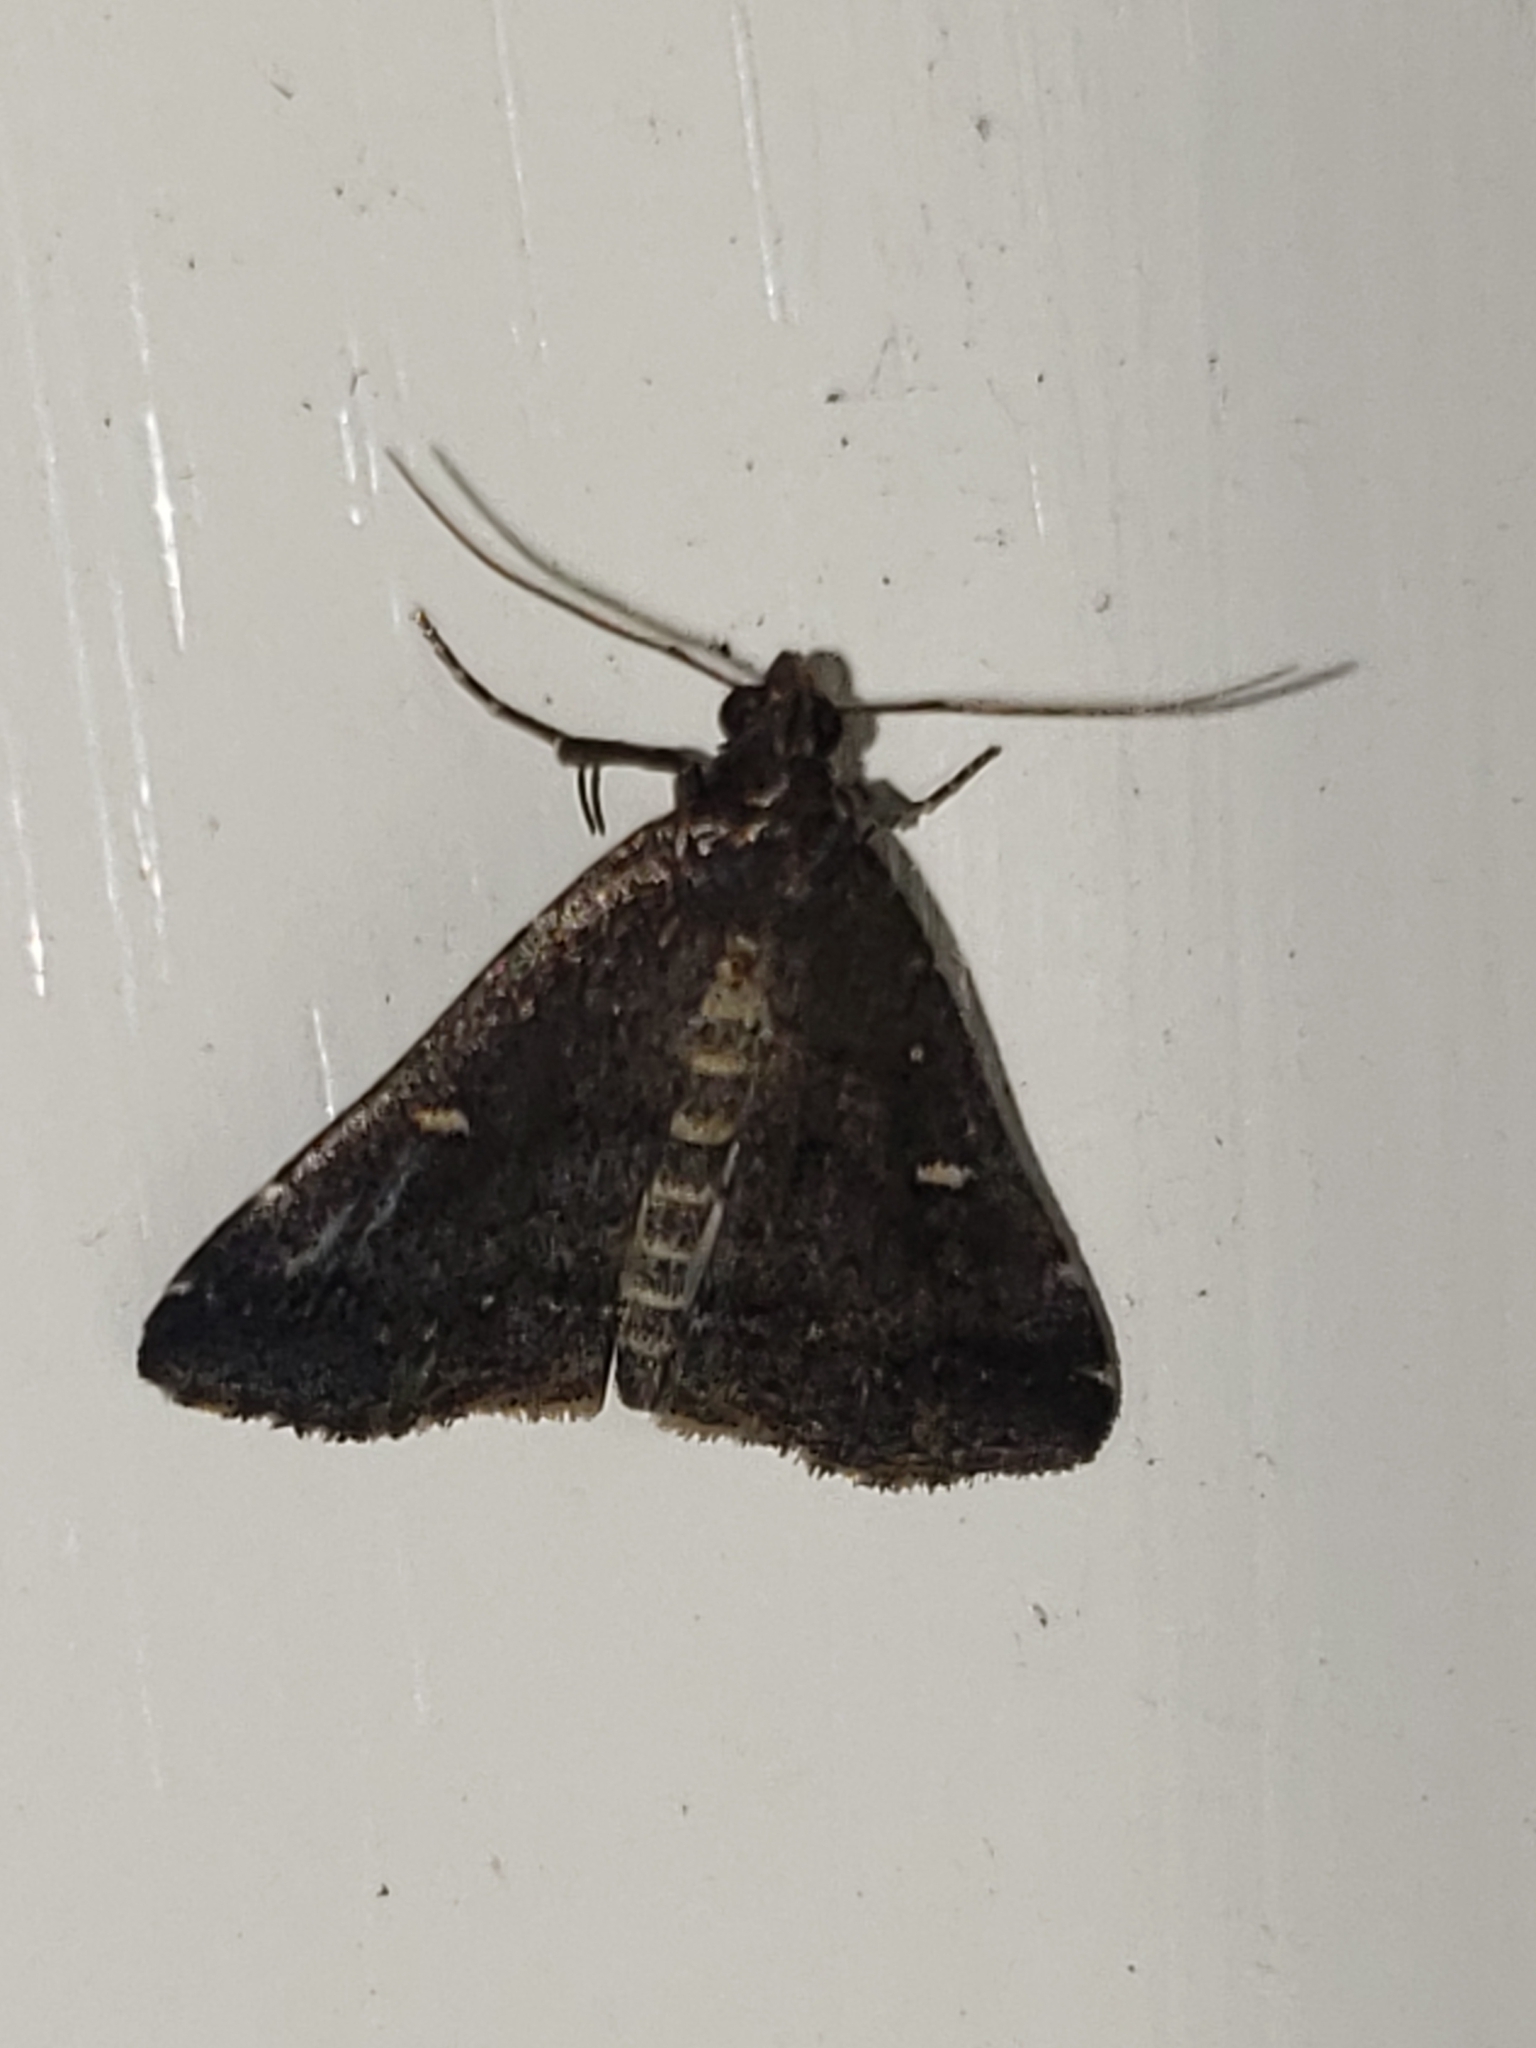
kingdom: Animalia
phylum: Arthropoda
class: Insecta
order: Lepidoptera
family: Erebidae
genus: Tetanolita
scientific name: Tetanolita mynesalis
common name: Smoky tetanolita moth
